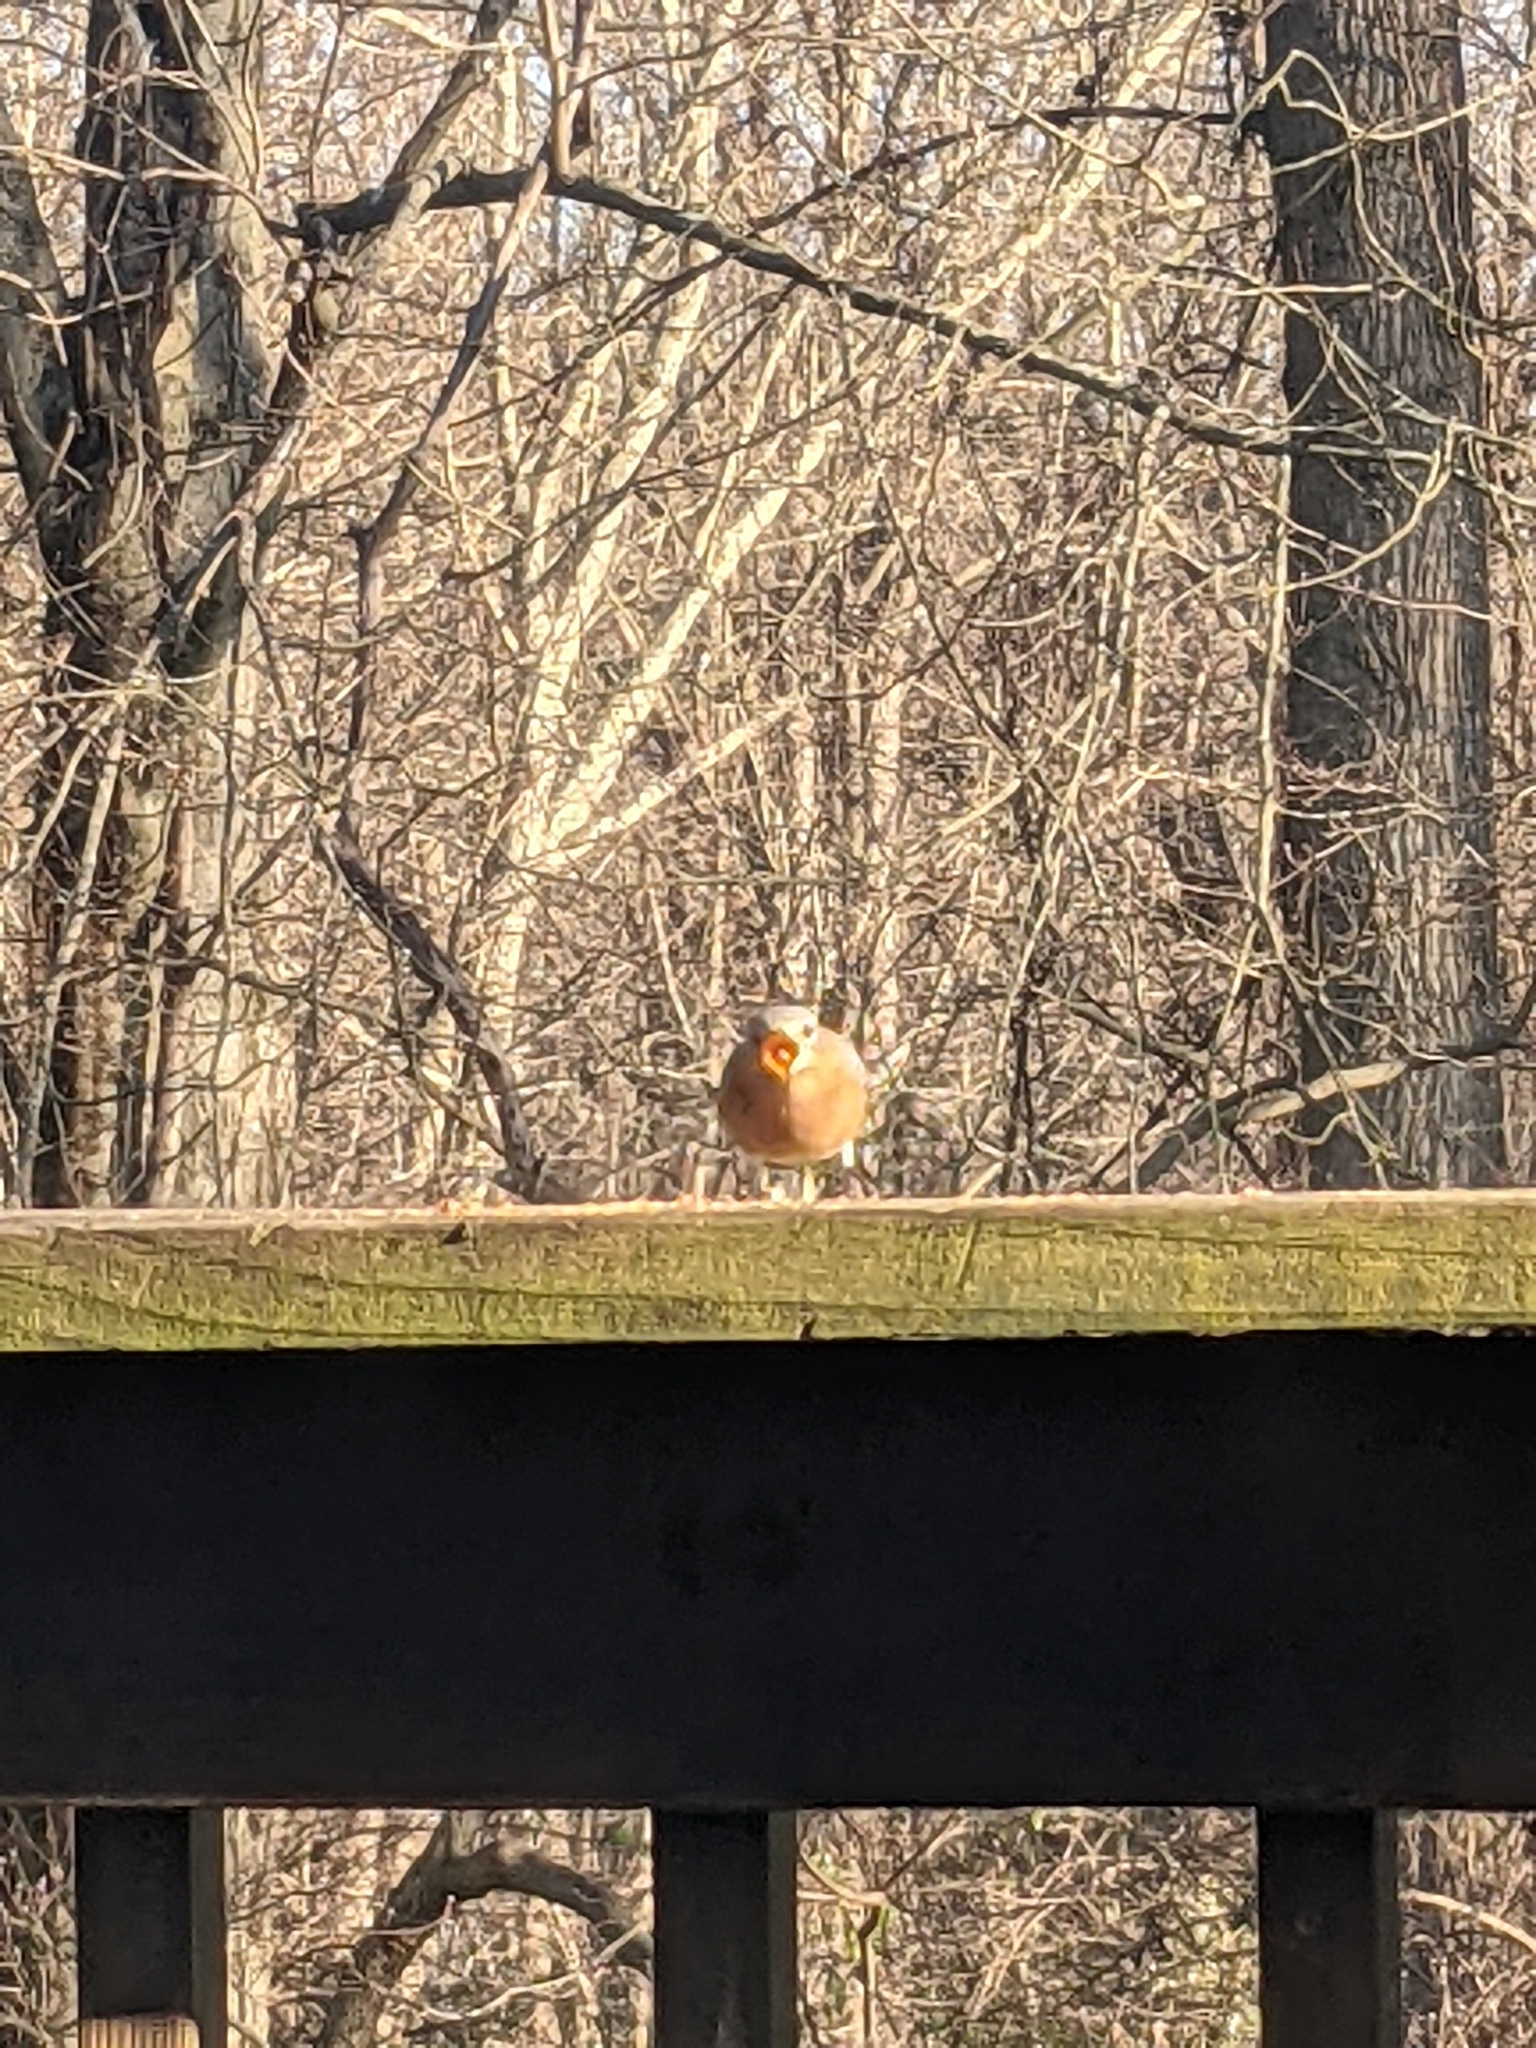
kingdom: Animalia
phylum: Chordata
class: Aves
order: Passeriformes
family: Turdidae
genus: Sialia
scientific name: Sialia sialis
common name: Eastern bluebird
